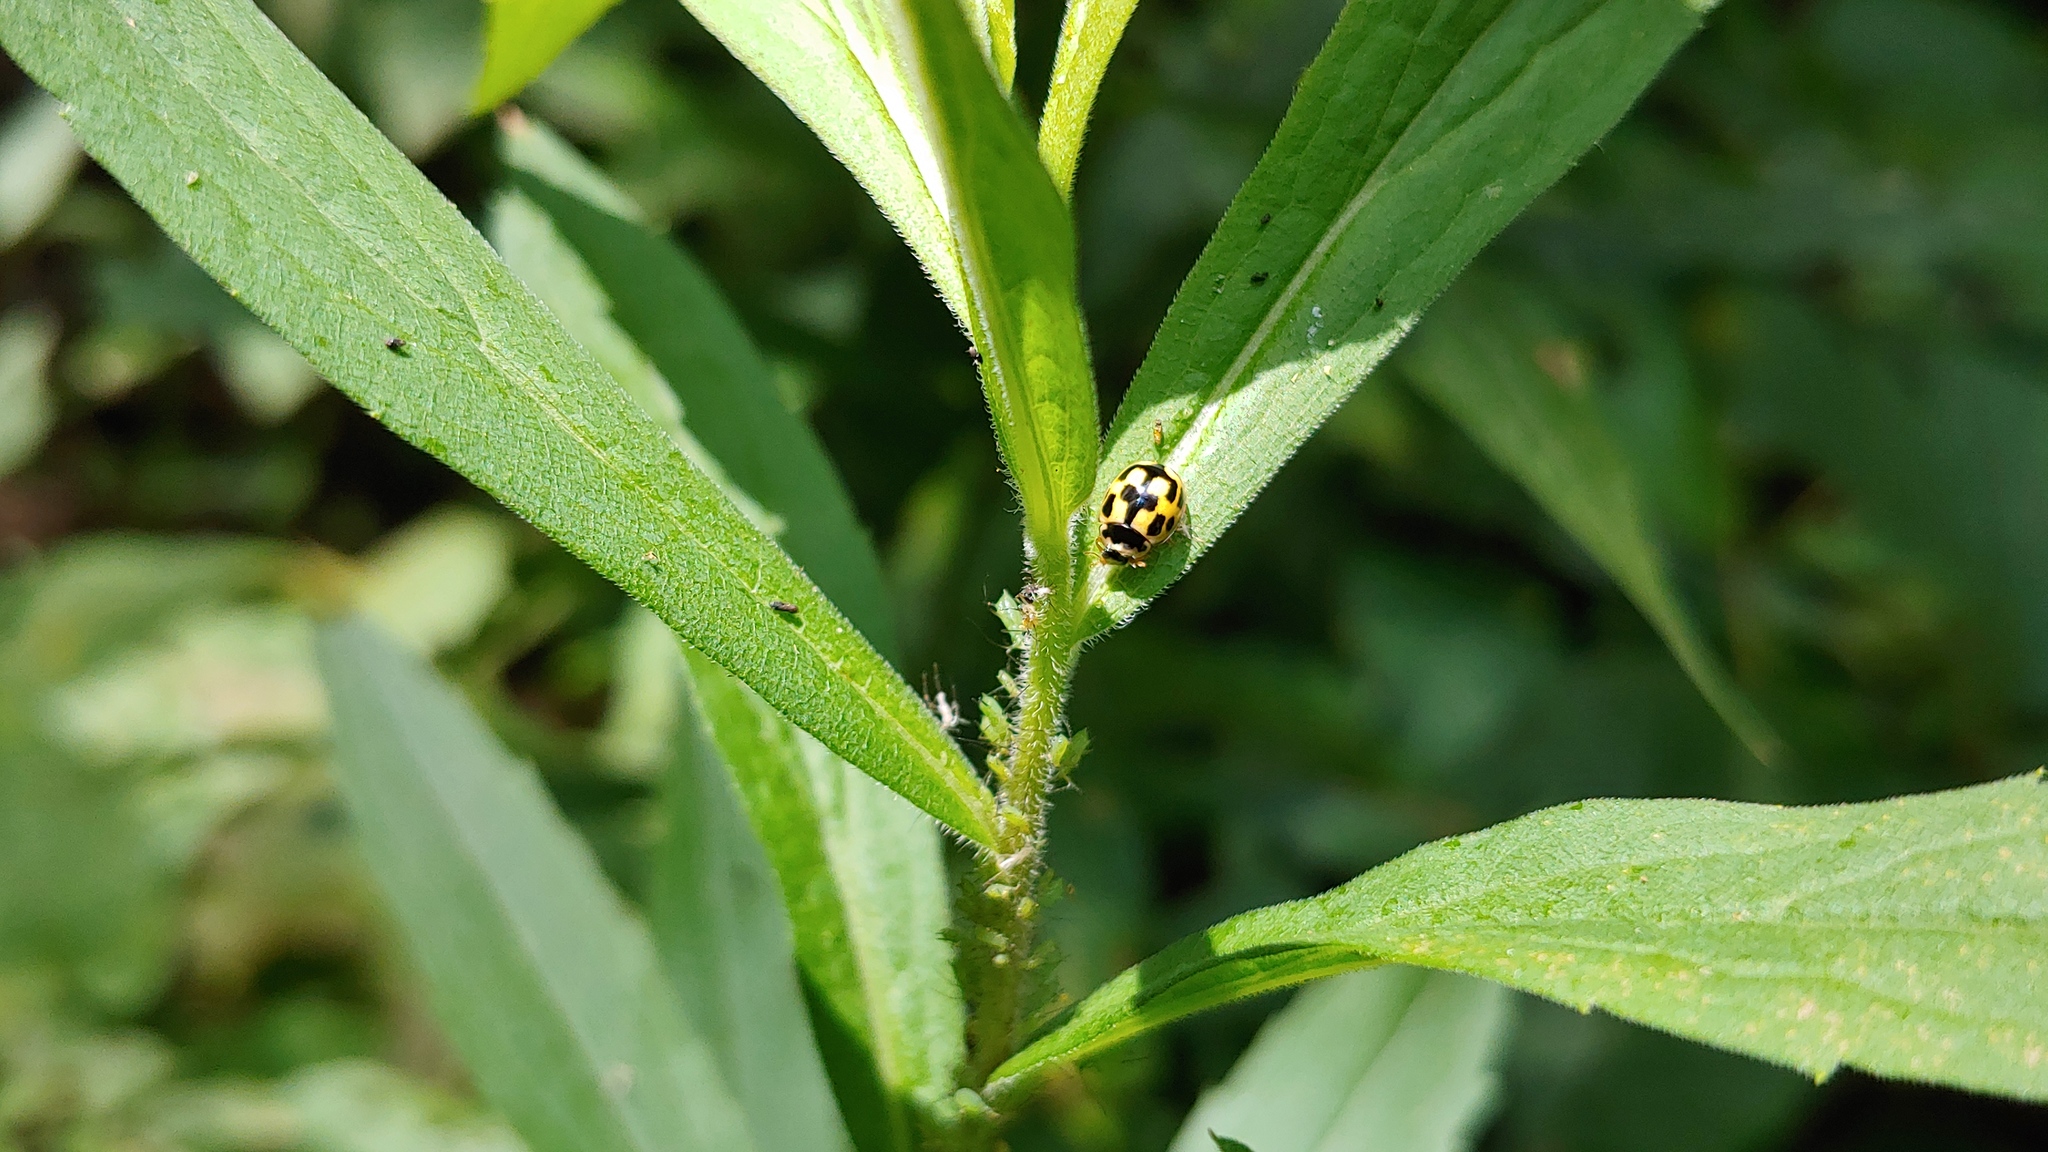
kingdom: Animalia
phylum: Arthropoda
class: Insecta
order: Coleoptera
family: Coccinellidae
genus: Propylaea
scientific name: Propylaea quatuordecimpunctata
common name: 14-spotted ladybird beetle
